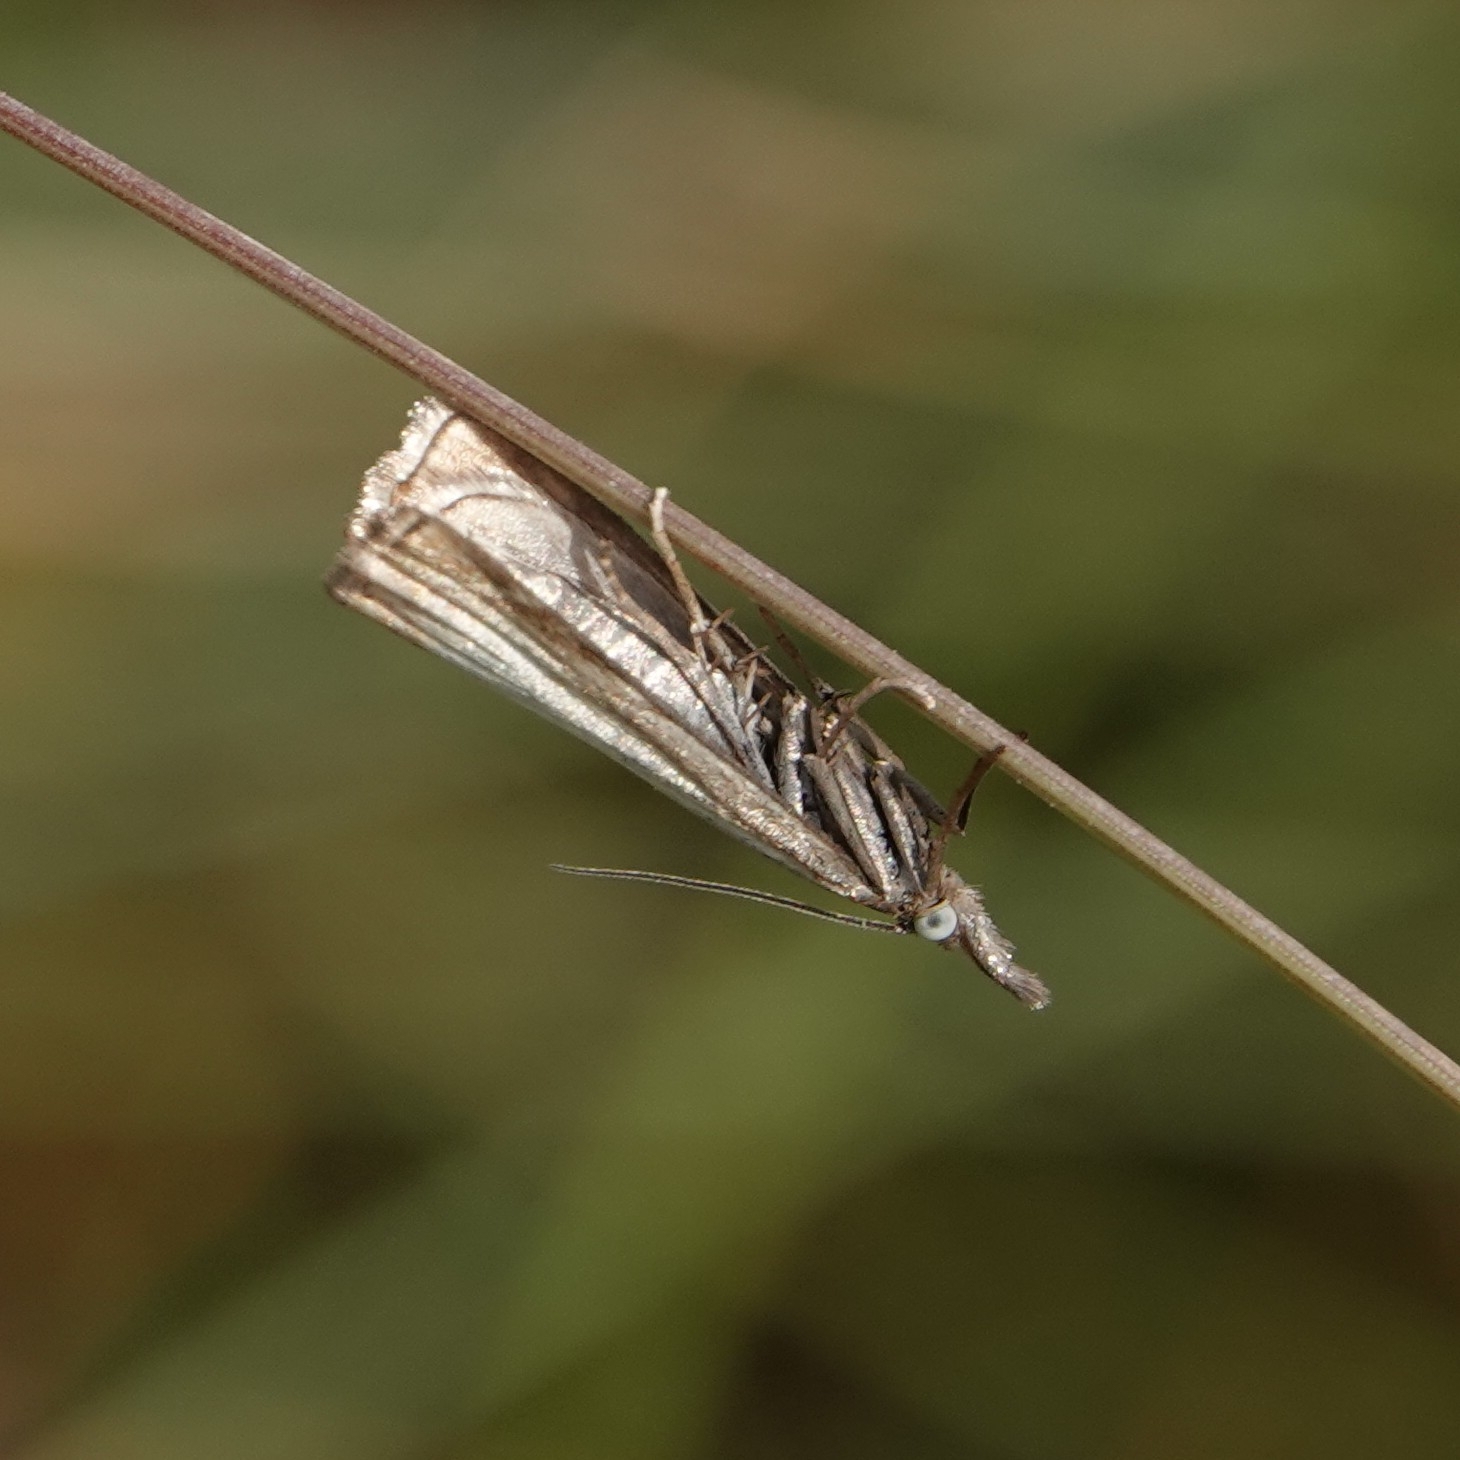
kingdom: Animalia
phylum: Arthropoda
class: Insecta
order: Lepidoptera
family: Crambidae
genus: Chrysoteuchia
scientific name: Chrysoteuchia culmella
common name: Garden grass-veneer
